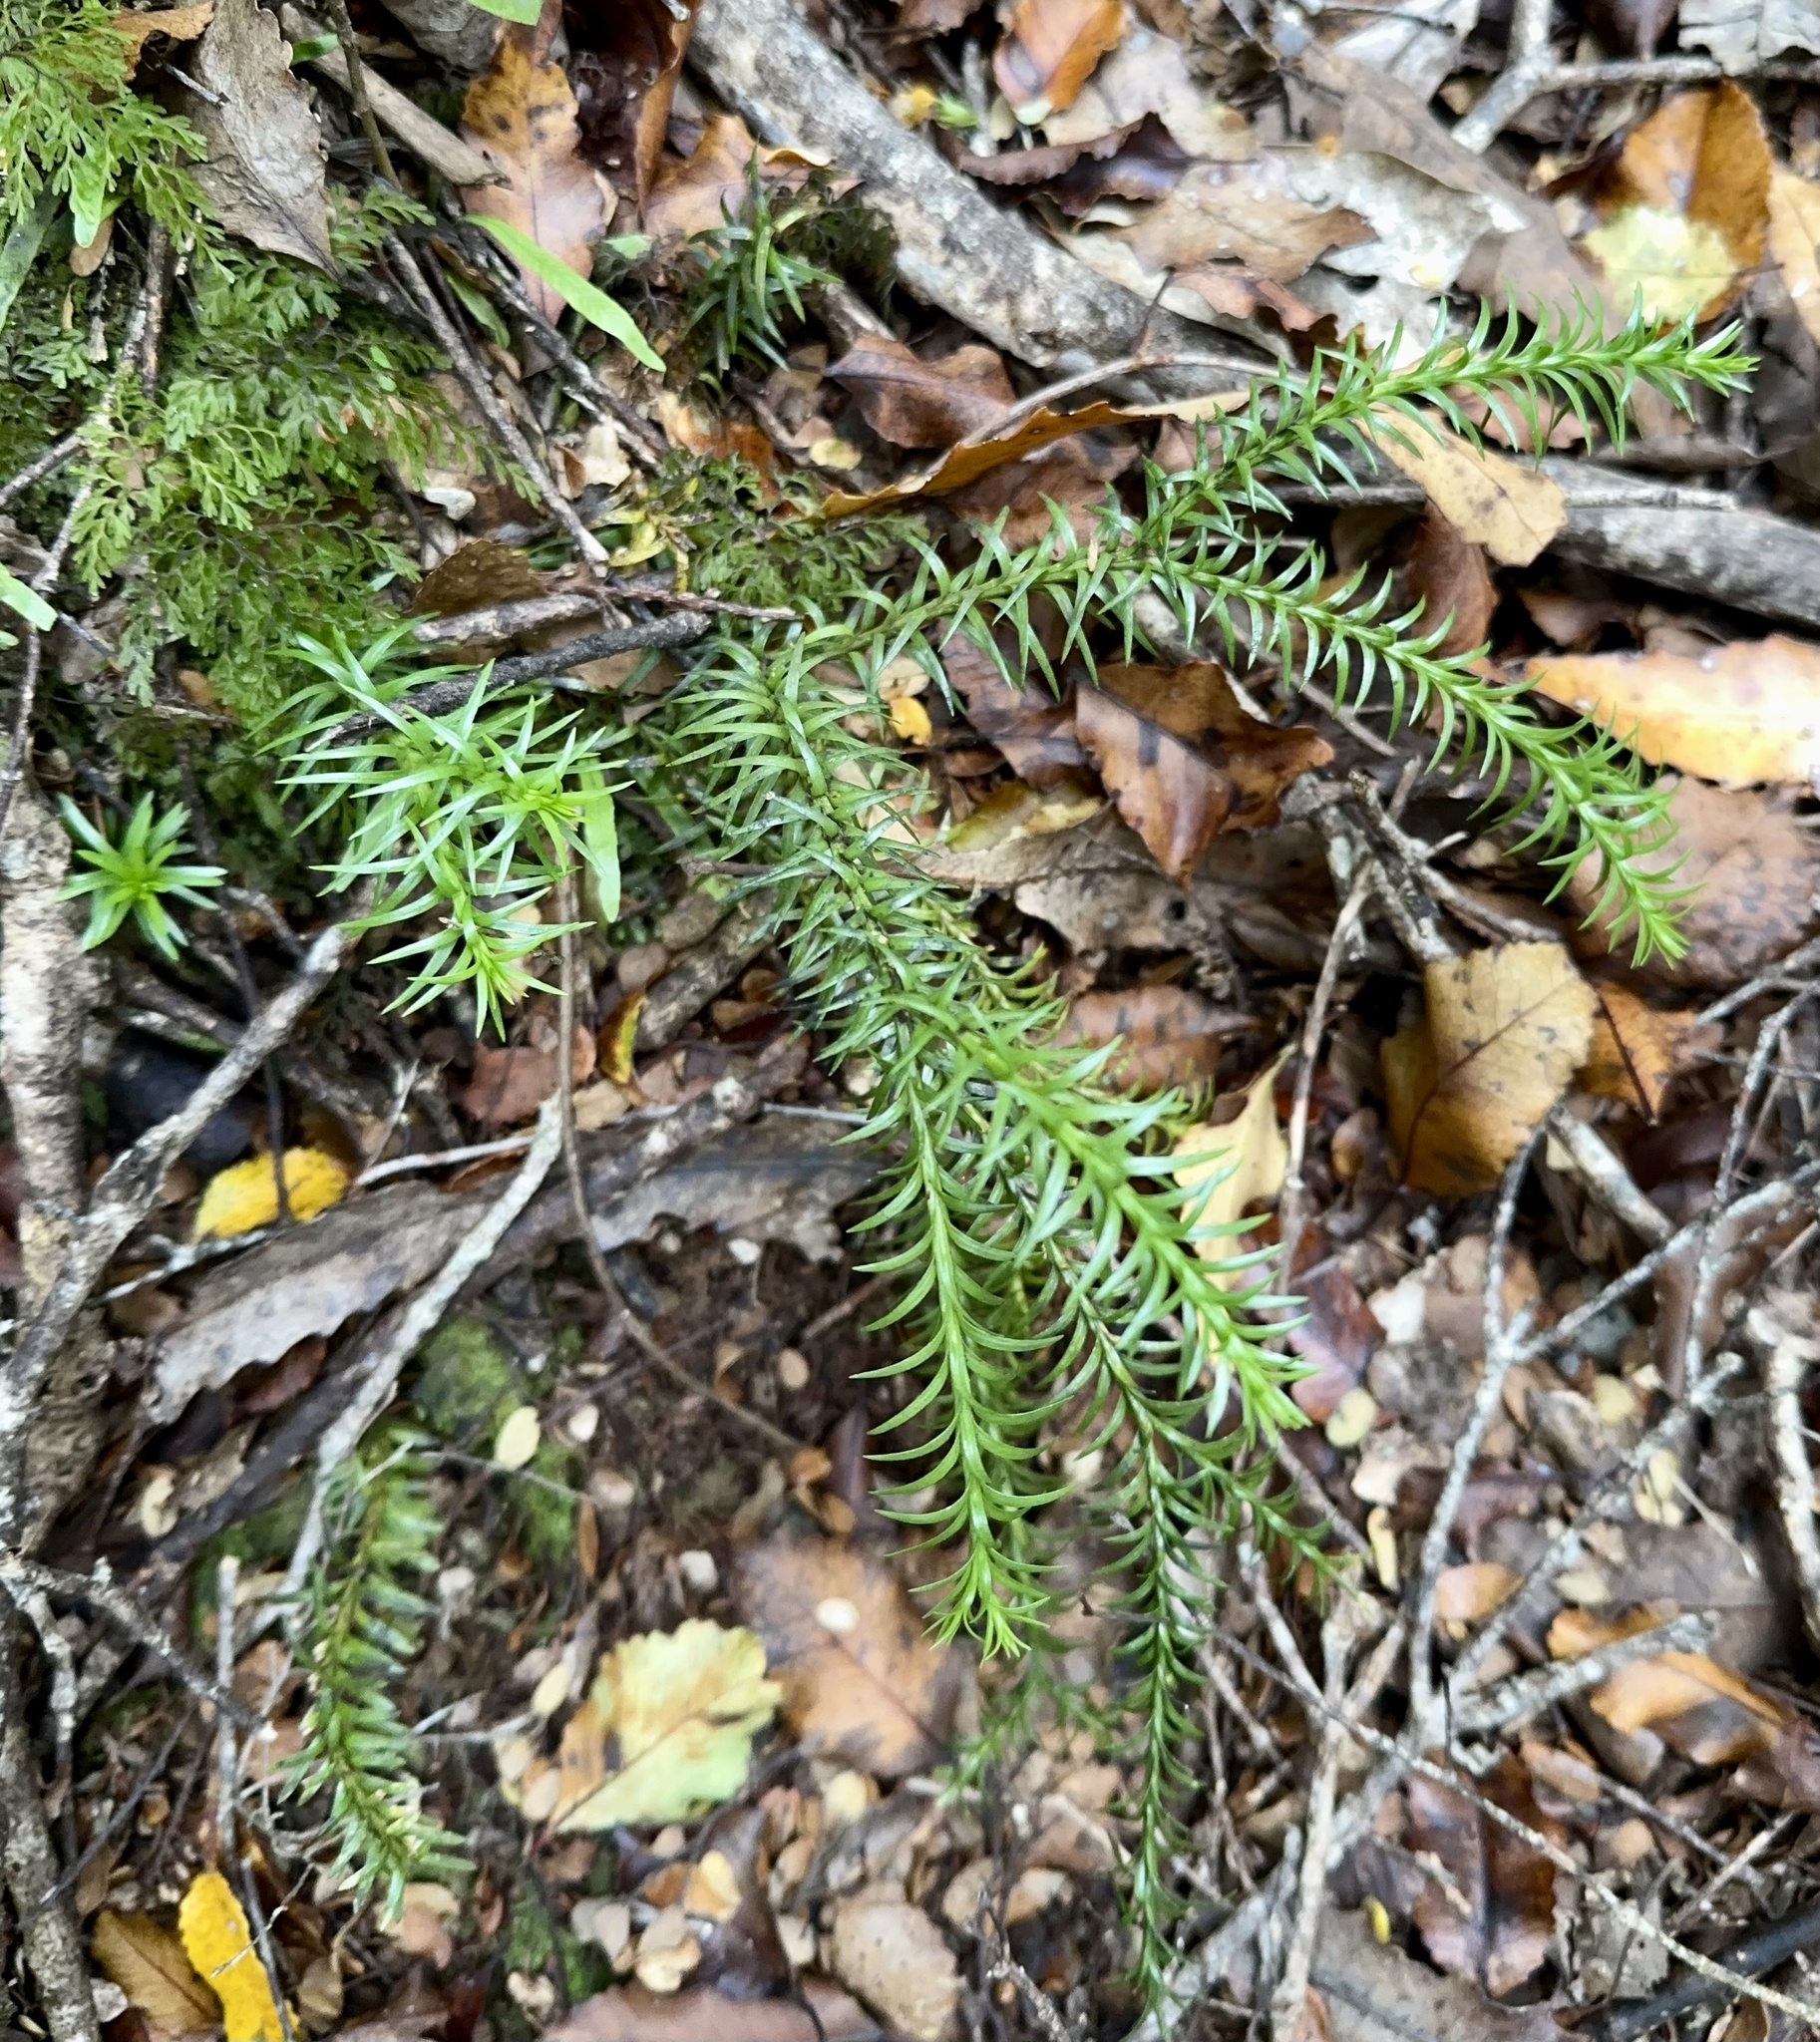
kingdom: Plantae
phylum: Tracheophyta
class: Lycopodiopsida
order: Lycopodiales
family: Lycopodiaceae
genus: Phlegmariurus
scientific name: Phlegmariurus varius
